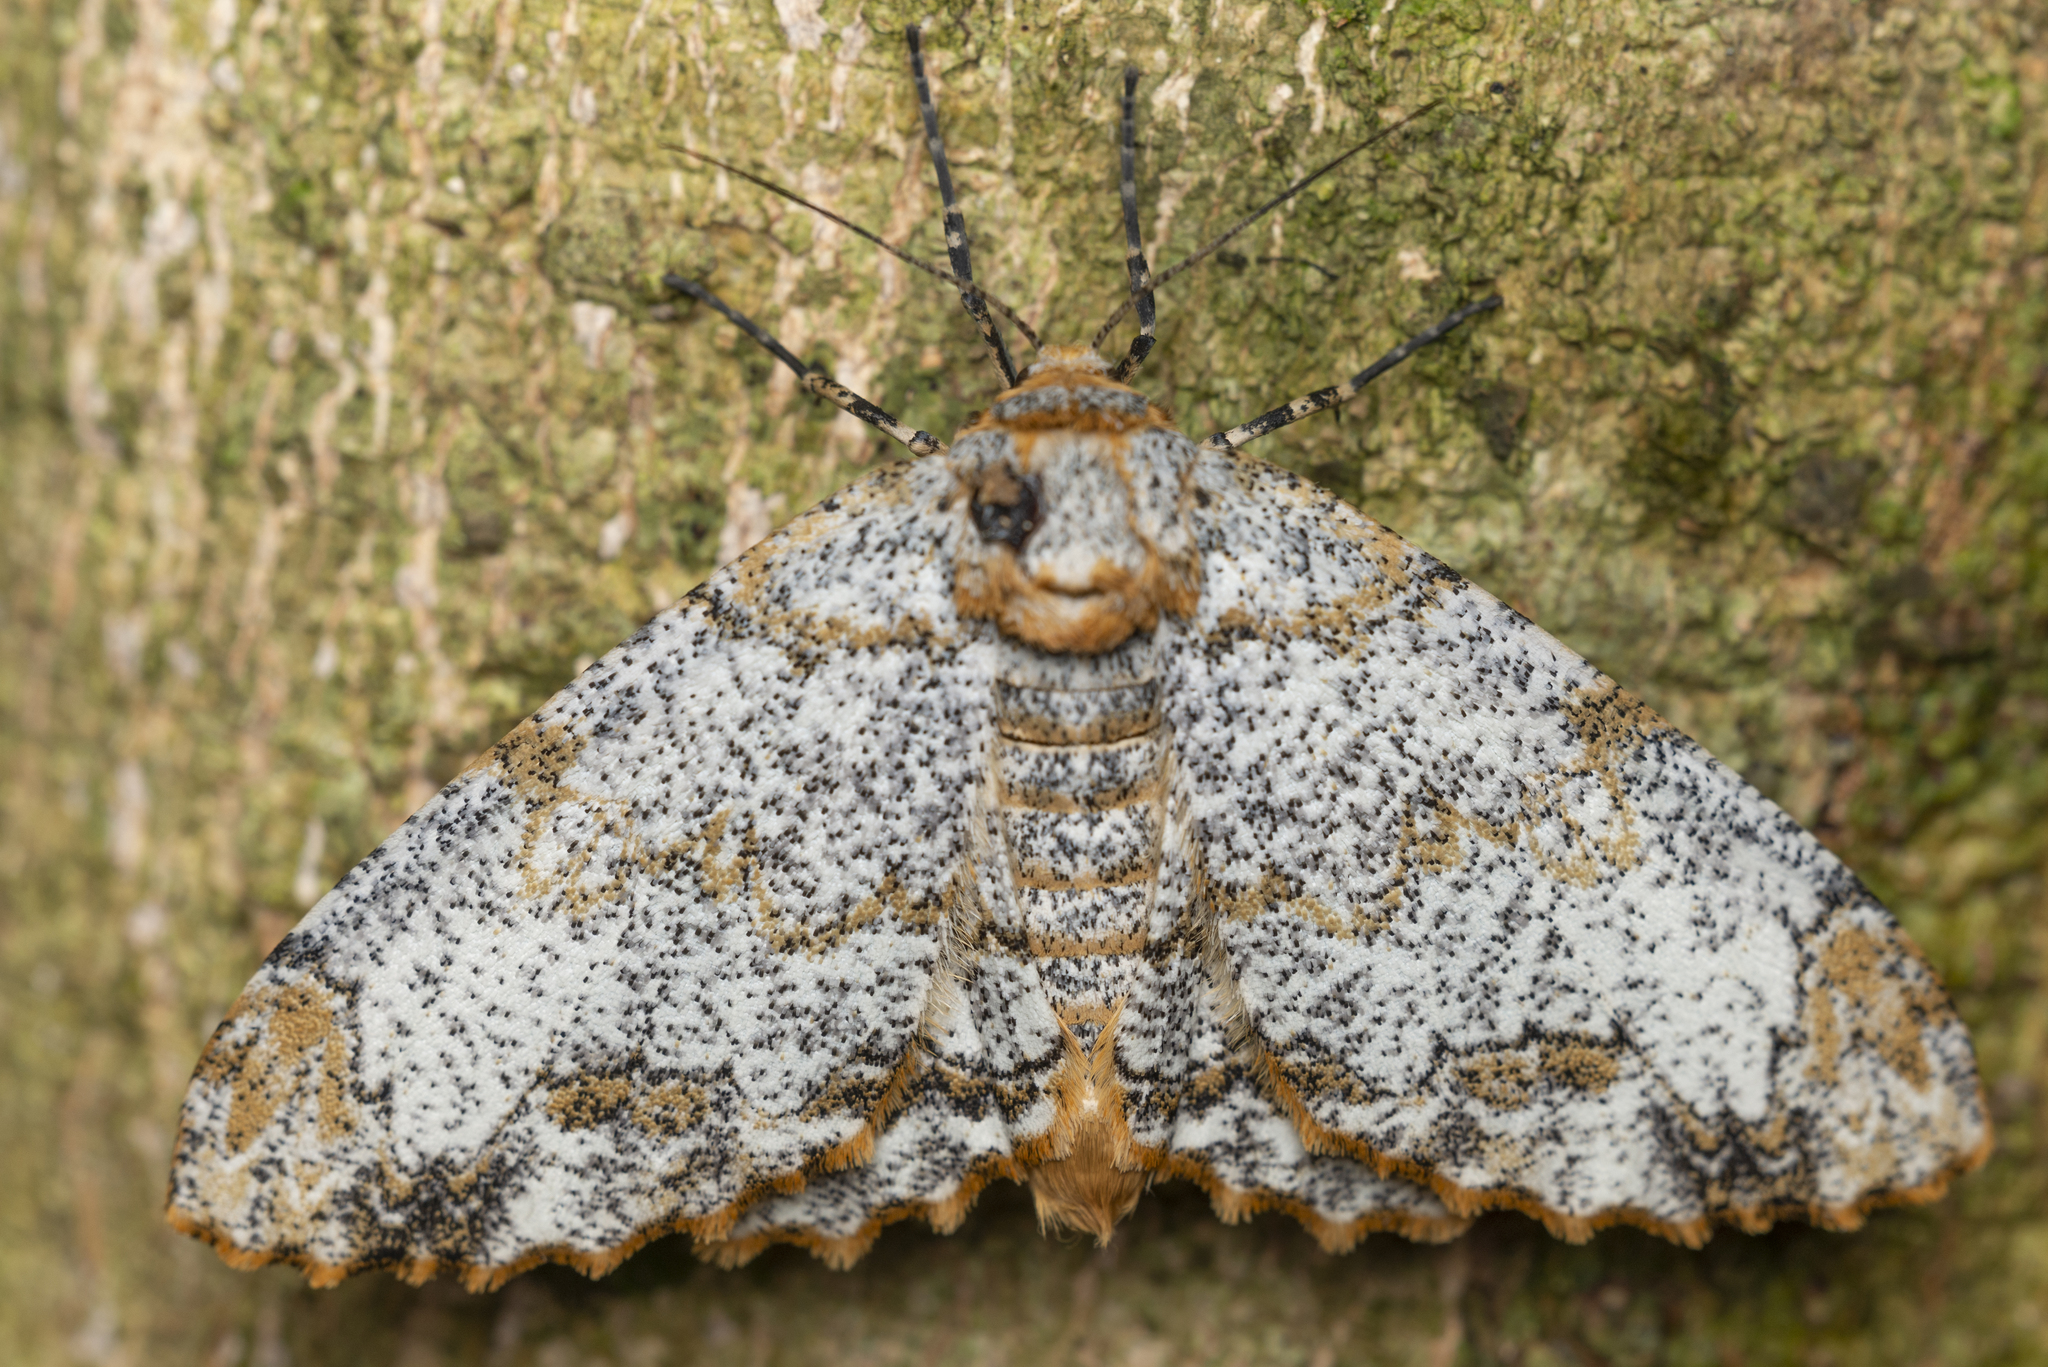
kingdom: Animalia
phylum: Arthropoda
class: Insecta
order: Lepidoptera
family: Geometridae
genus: Biston
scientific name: Biston suppressaria
